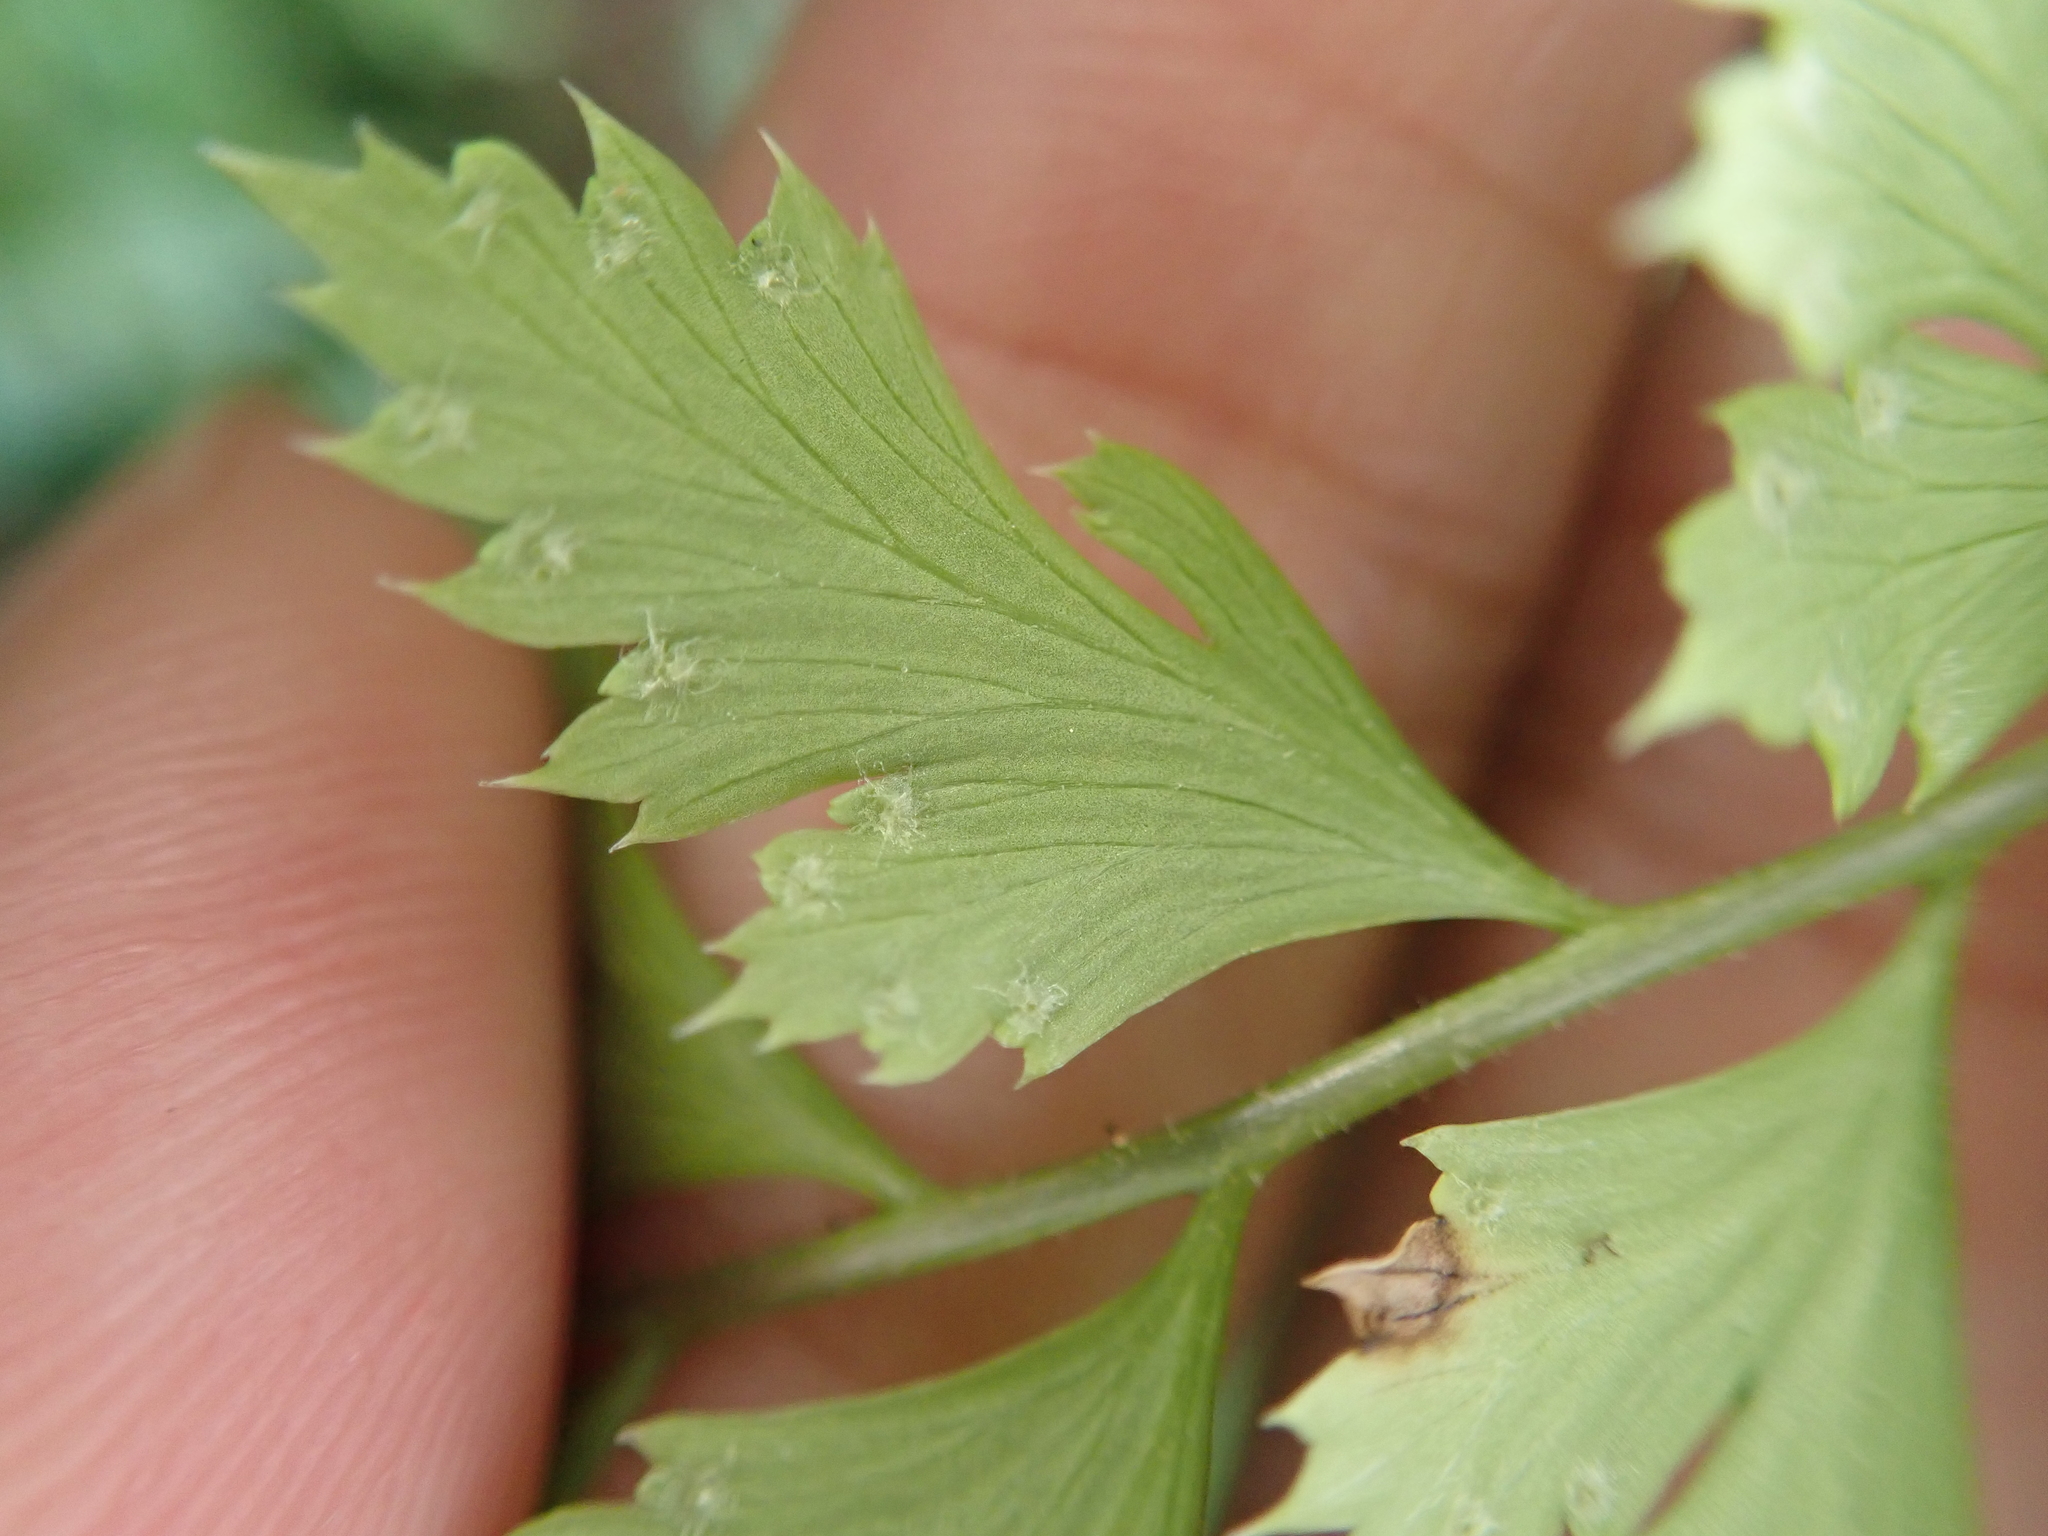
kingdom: Plantae
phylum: Tracheophyta
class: Polypodiopsida
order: Polypodiales
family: Dryopteridaceae
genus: Arachniodes
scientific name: Arachniodes rhomboidea
